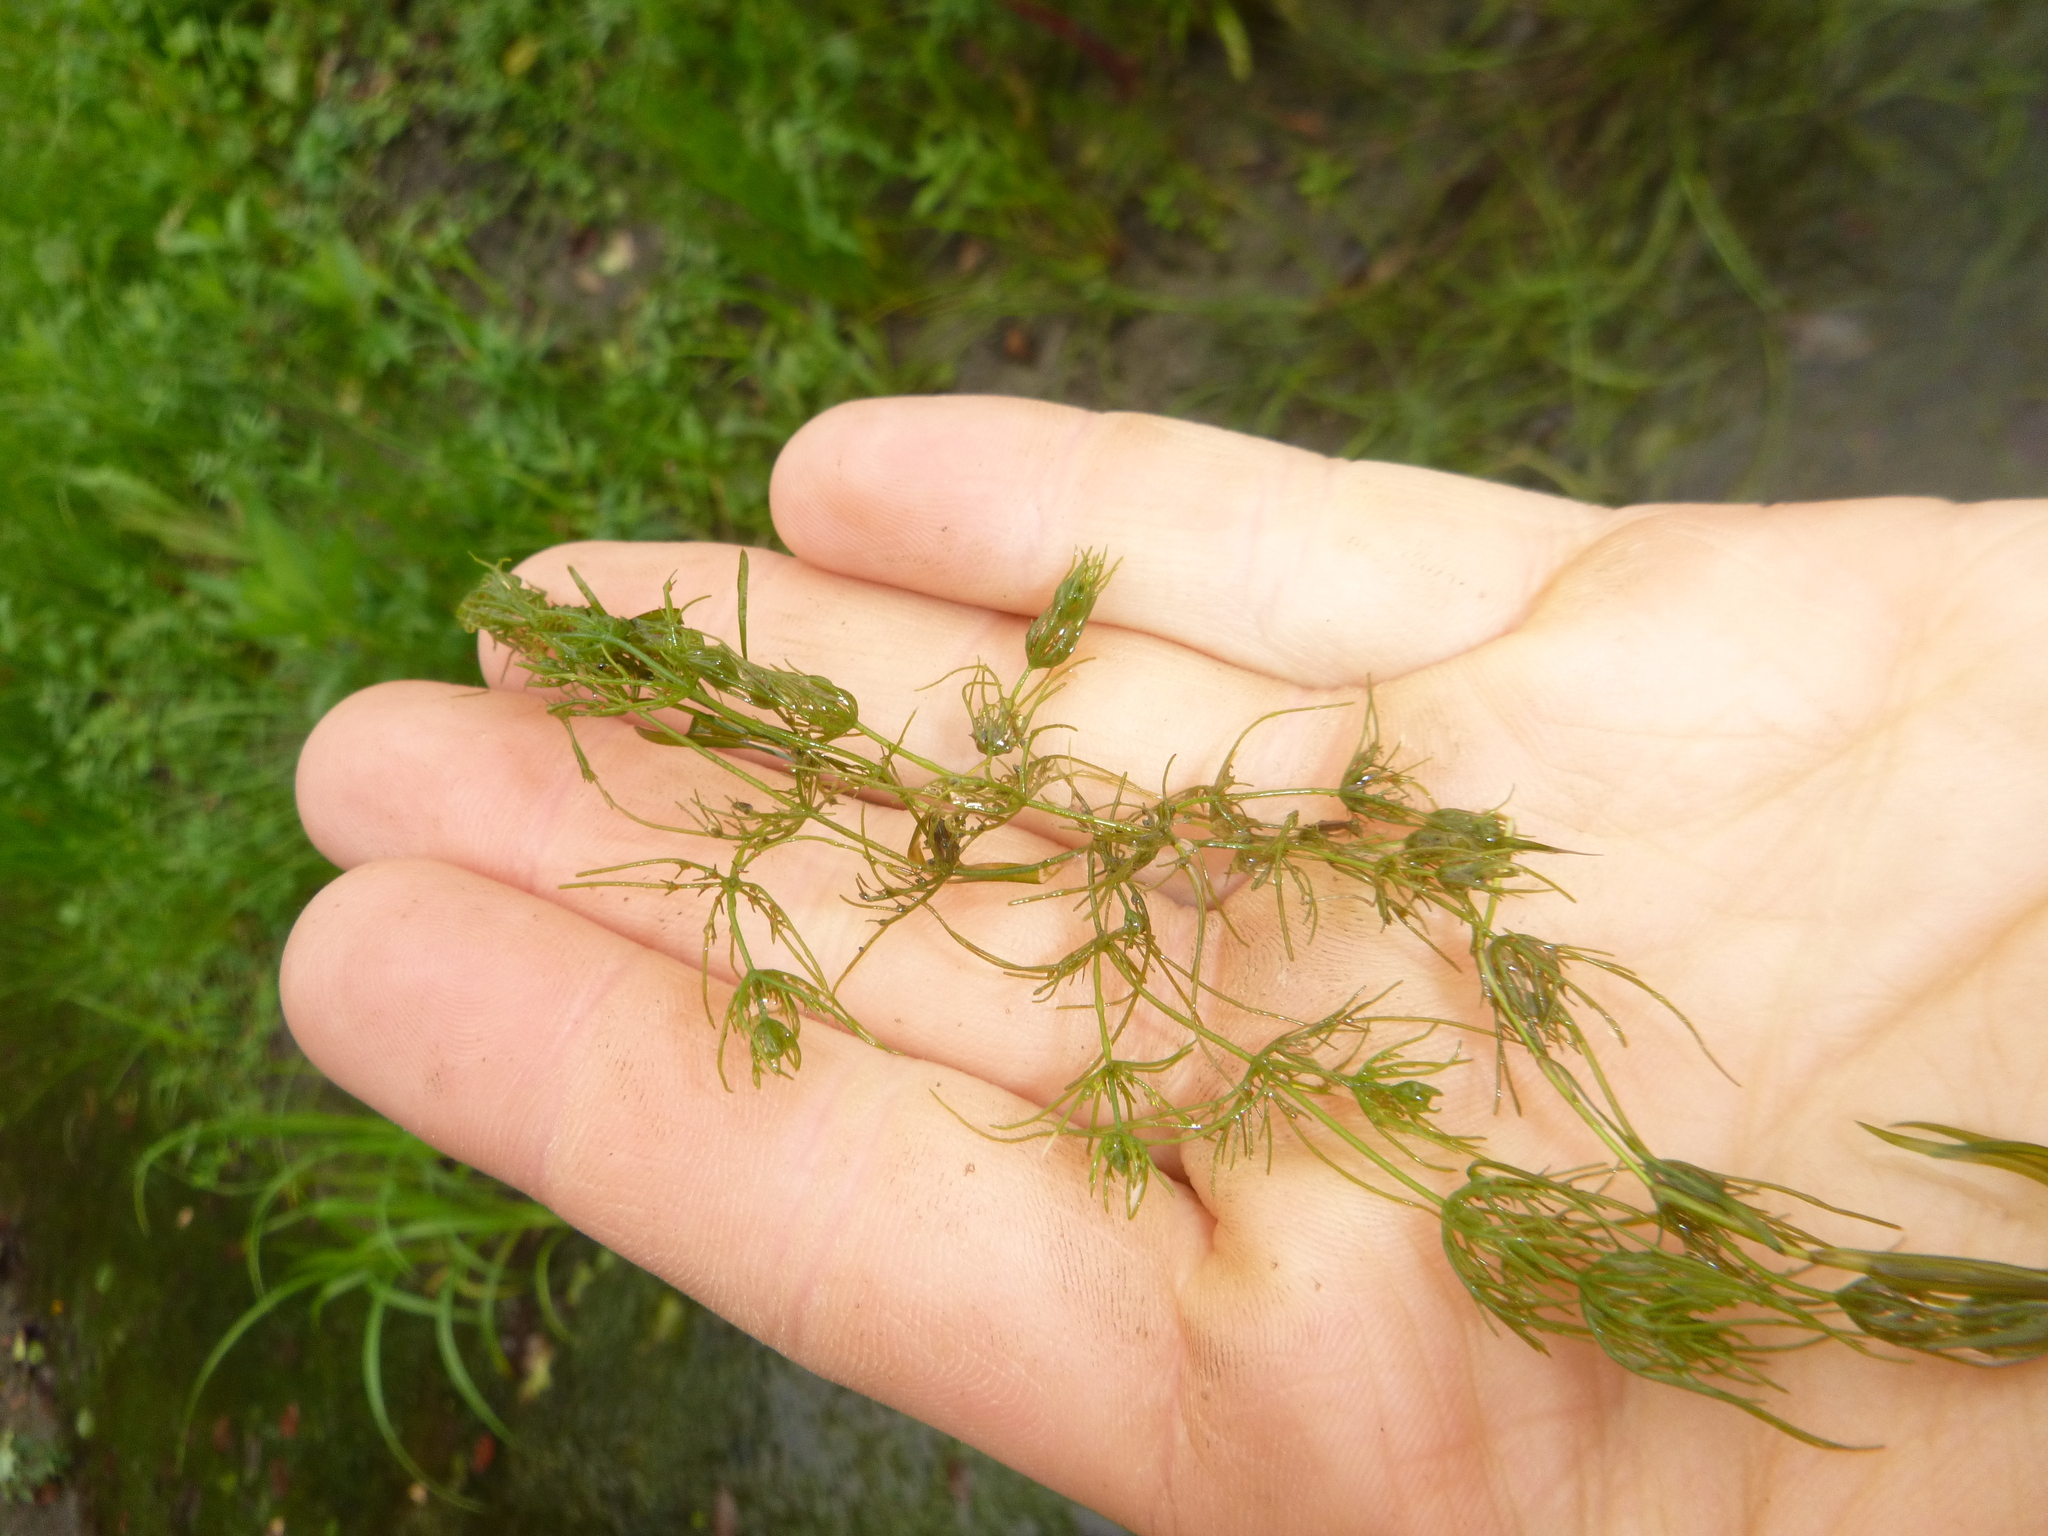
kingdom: Plantae
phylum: Charophyta
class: Charophyceae
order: Charales
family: Characeae
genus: Chara
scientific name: Chara vulgaris
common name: Common stonewort
